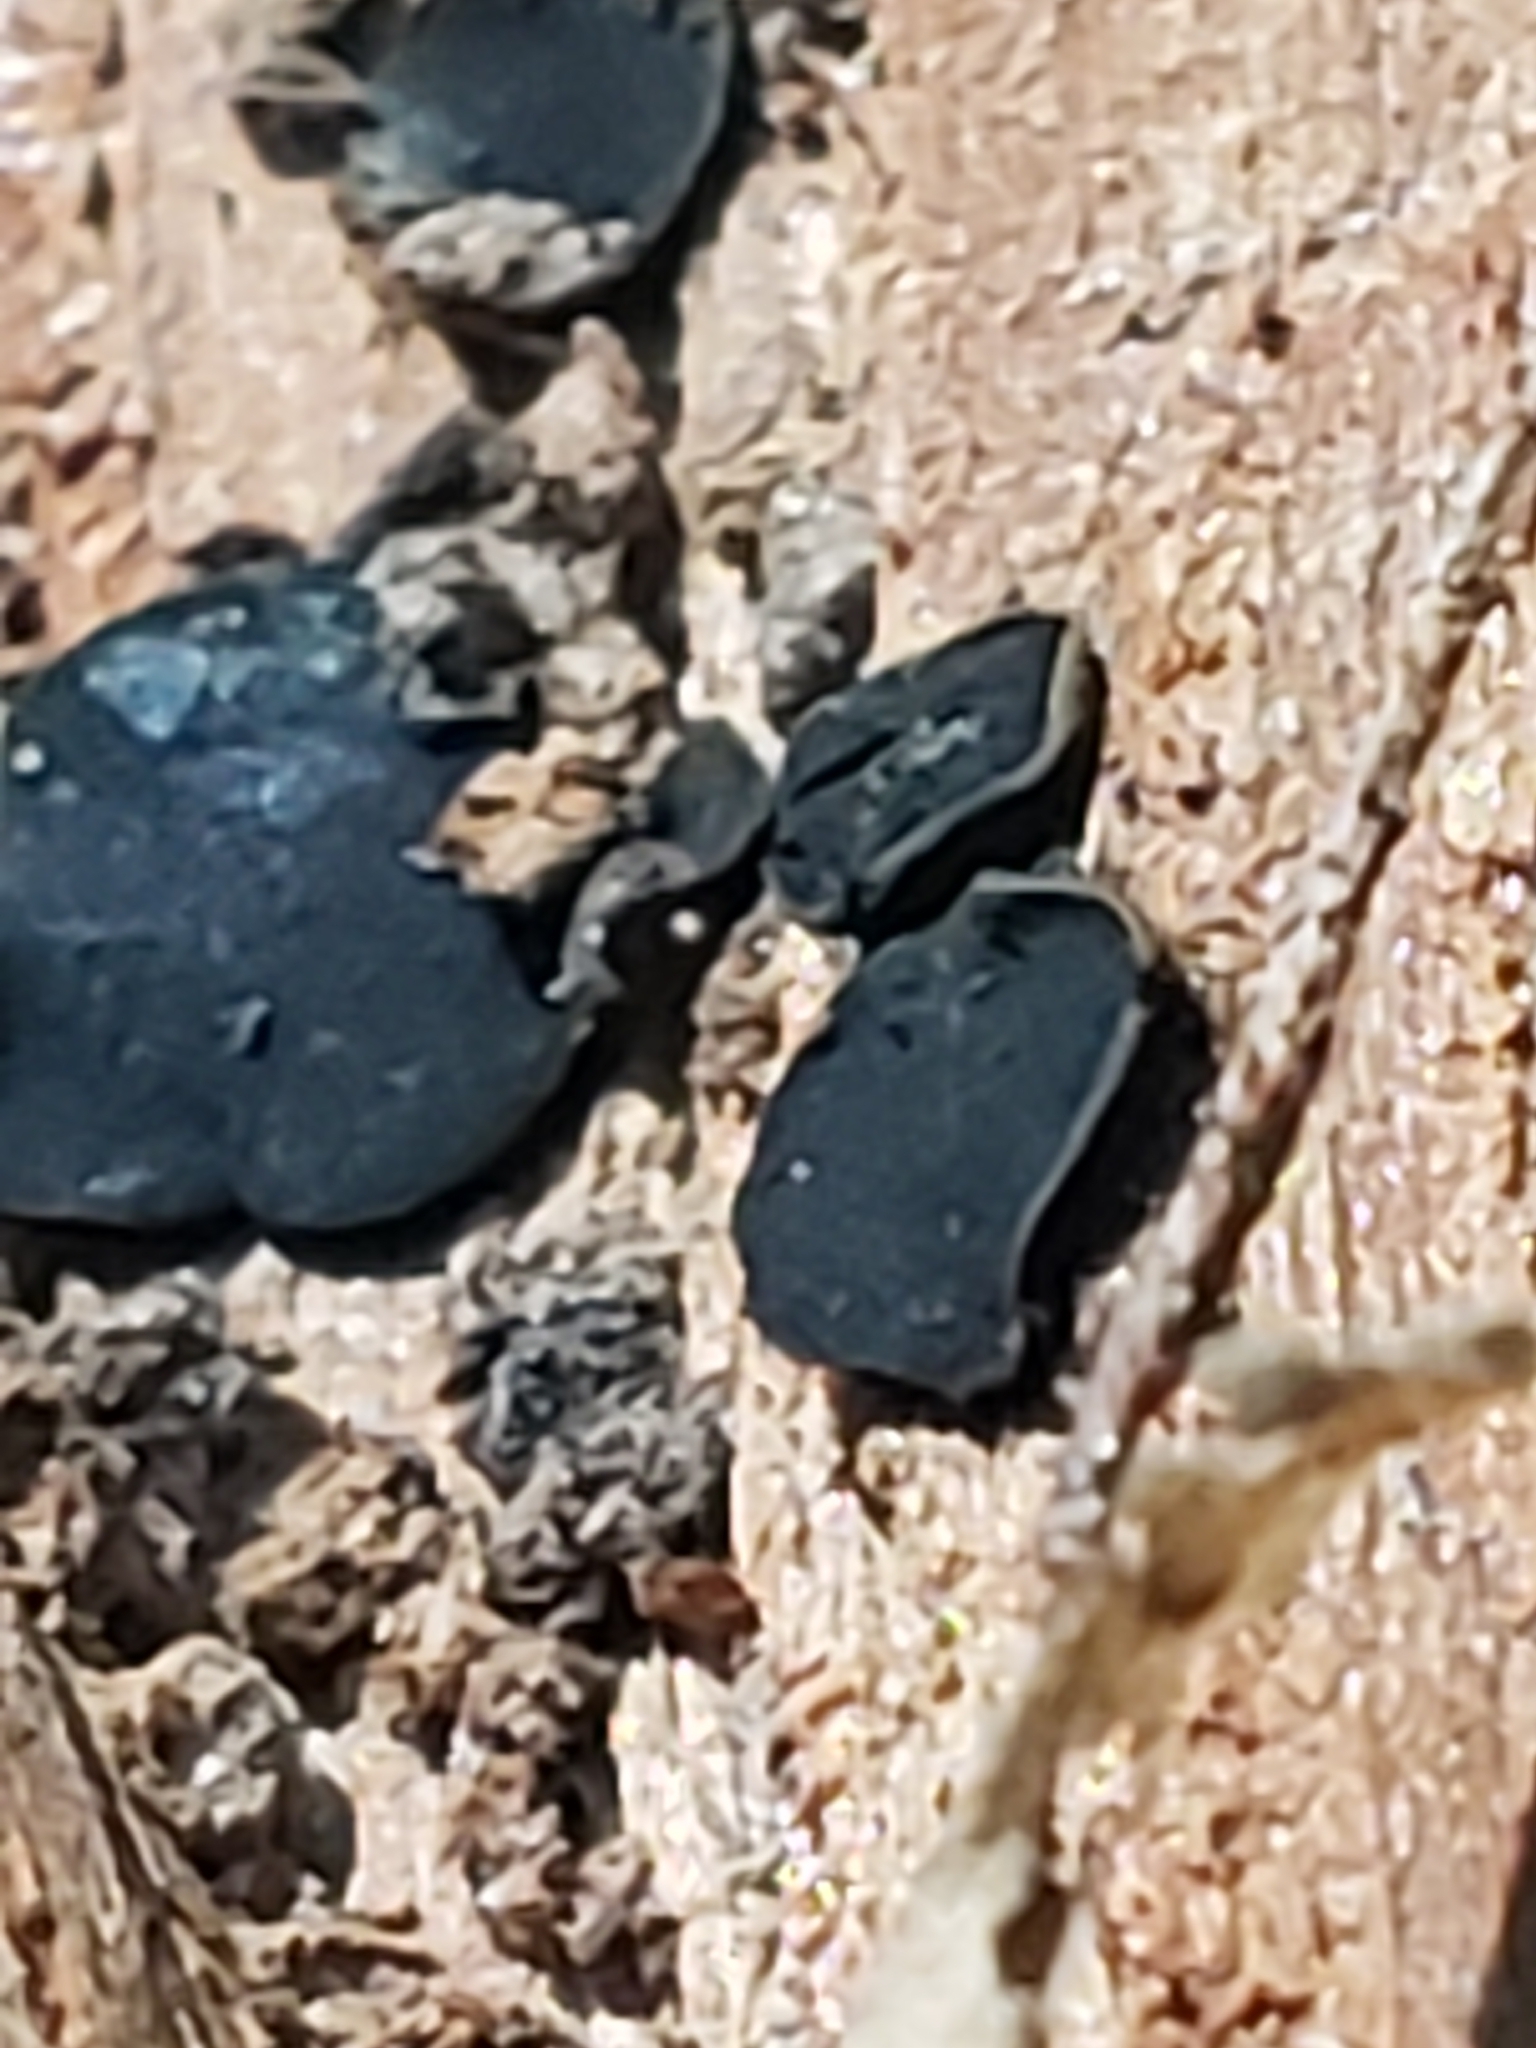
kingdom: Fungi
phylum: Ascomycota
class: Dothideomycetes
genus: Catinella
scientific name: Catinella olivacea
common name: Olive salver
